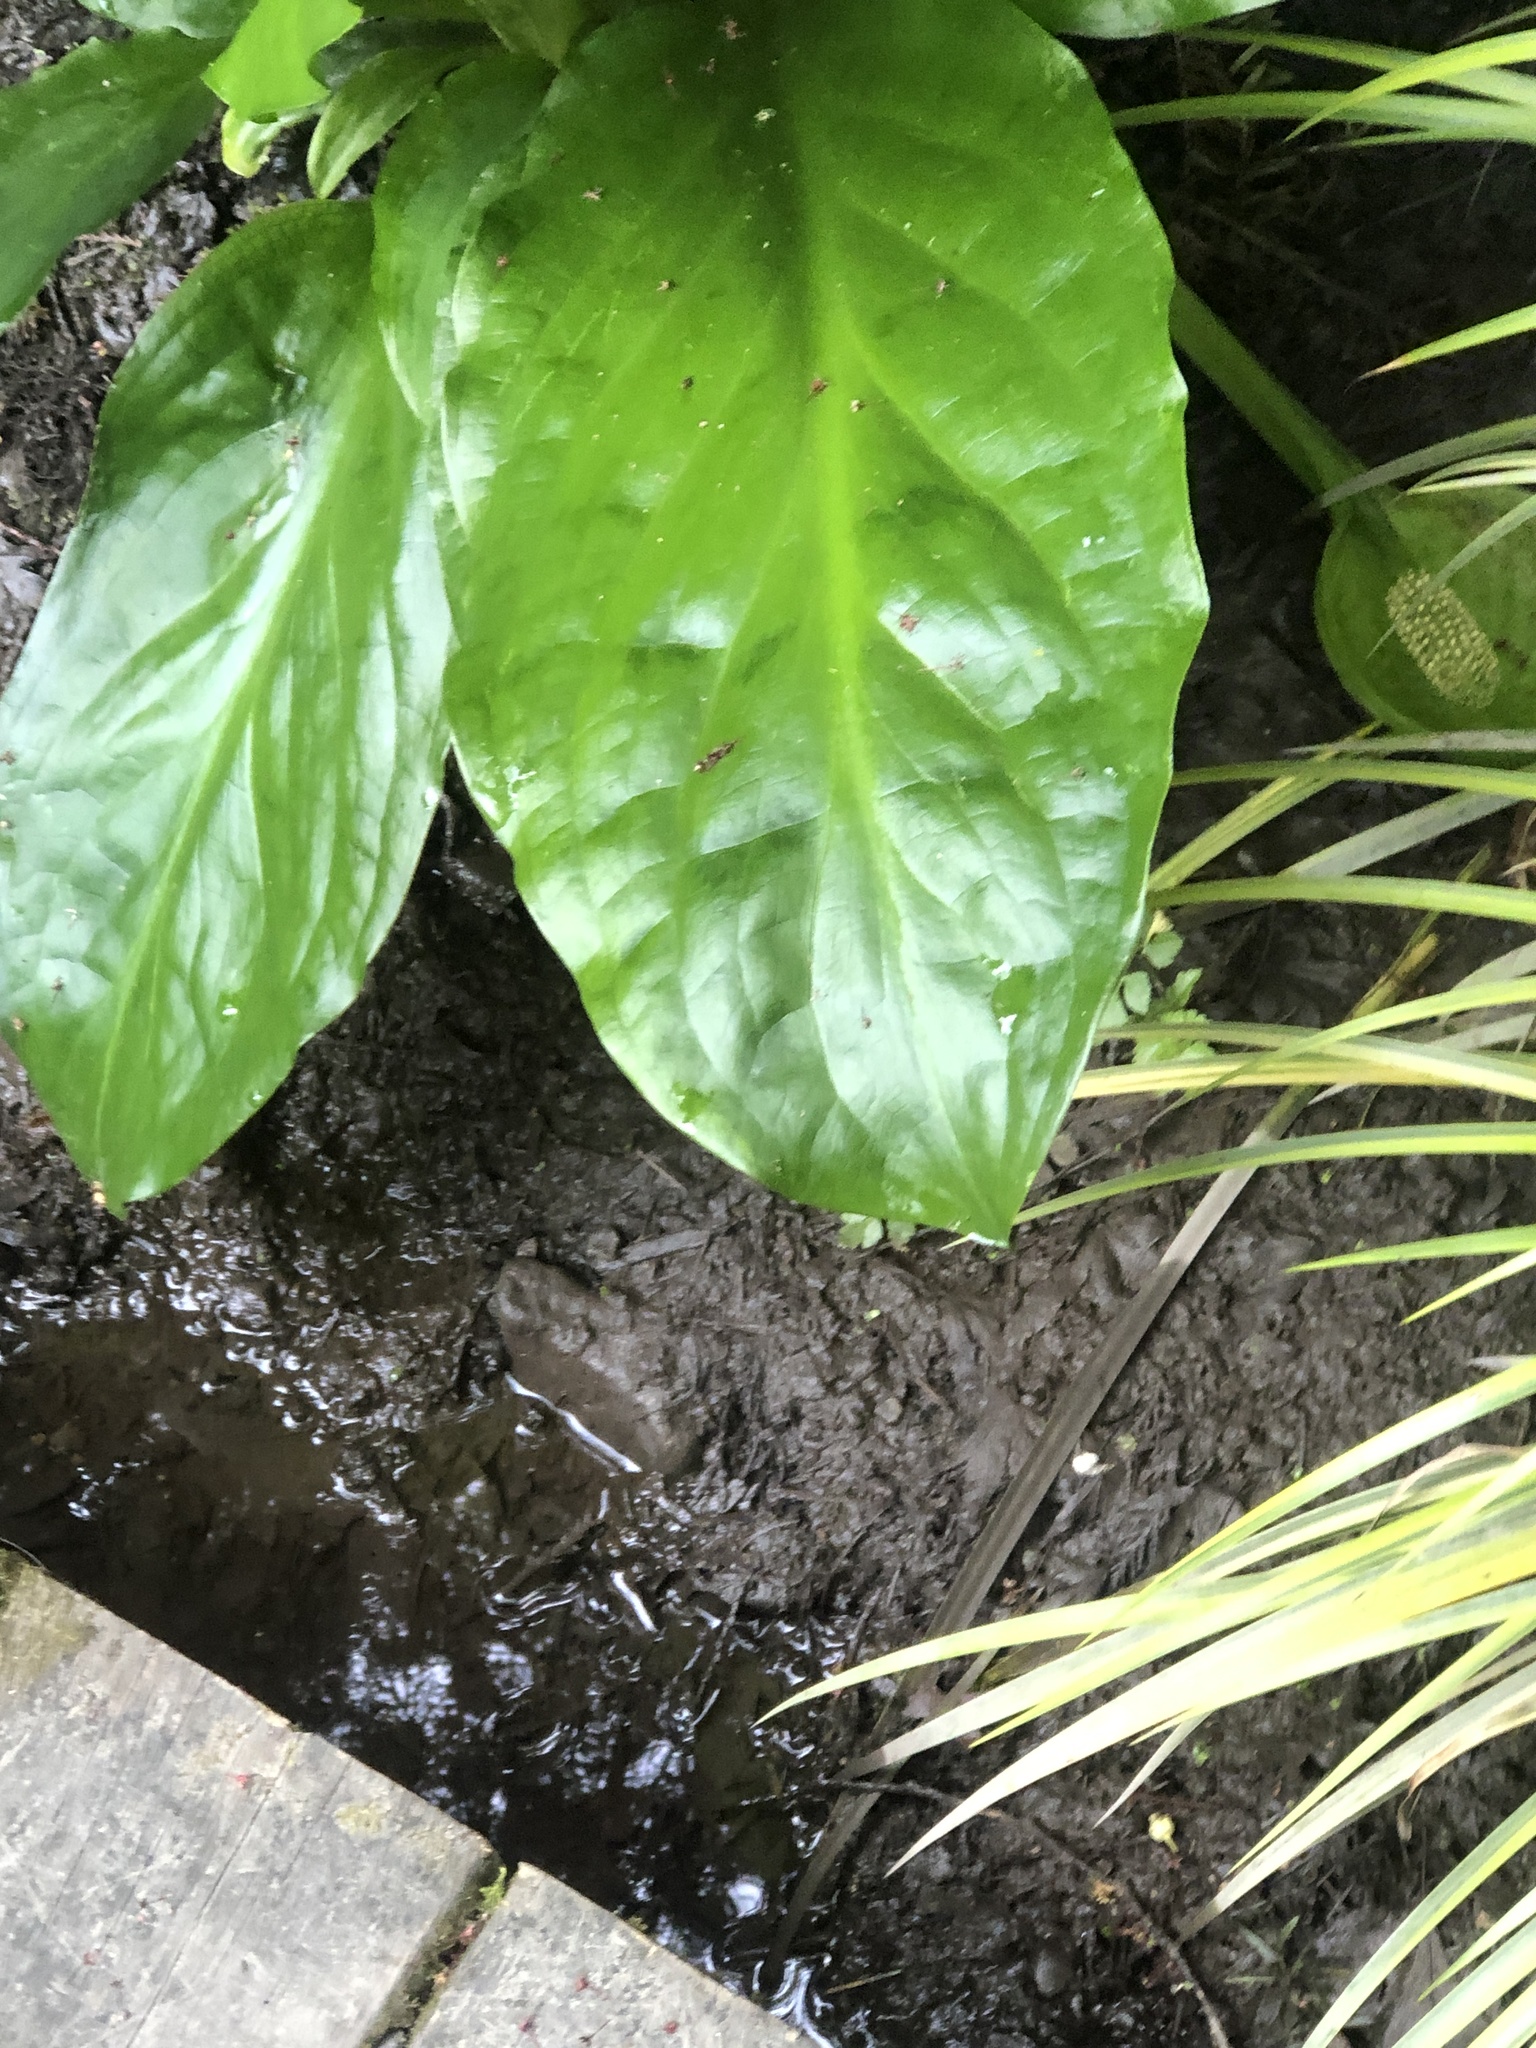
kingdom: Plantae
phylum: Tracheophyta
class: Liliopsida
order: Alismatales
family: Araceae
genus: Lysichiton
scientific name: Lysichiton americanus
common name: American skunk cabbage
